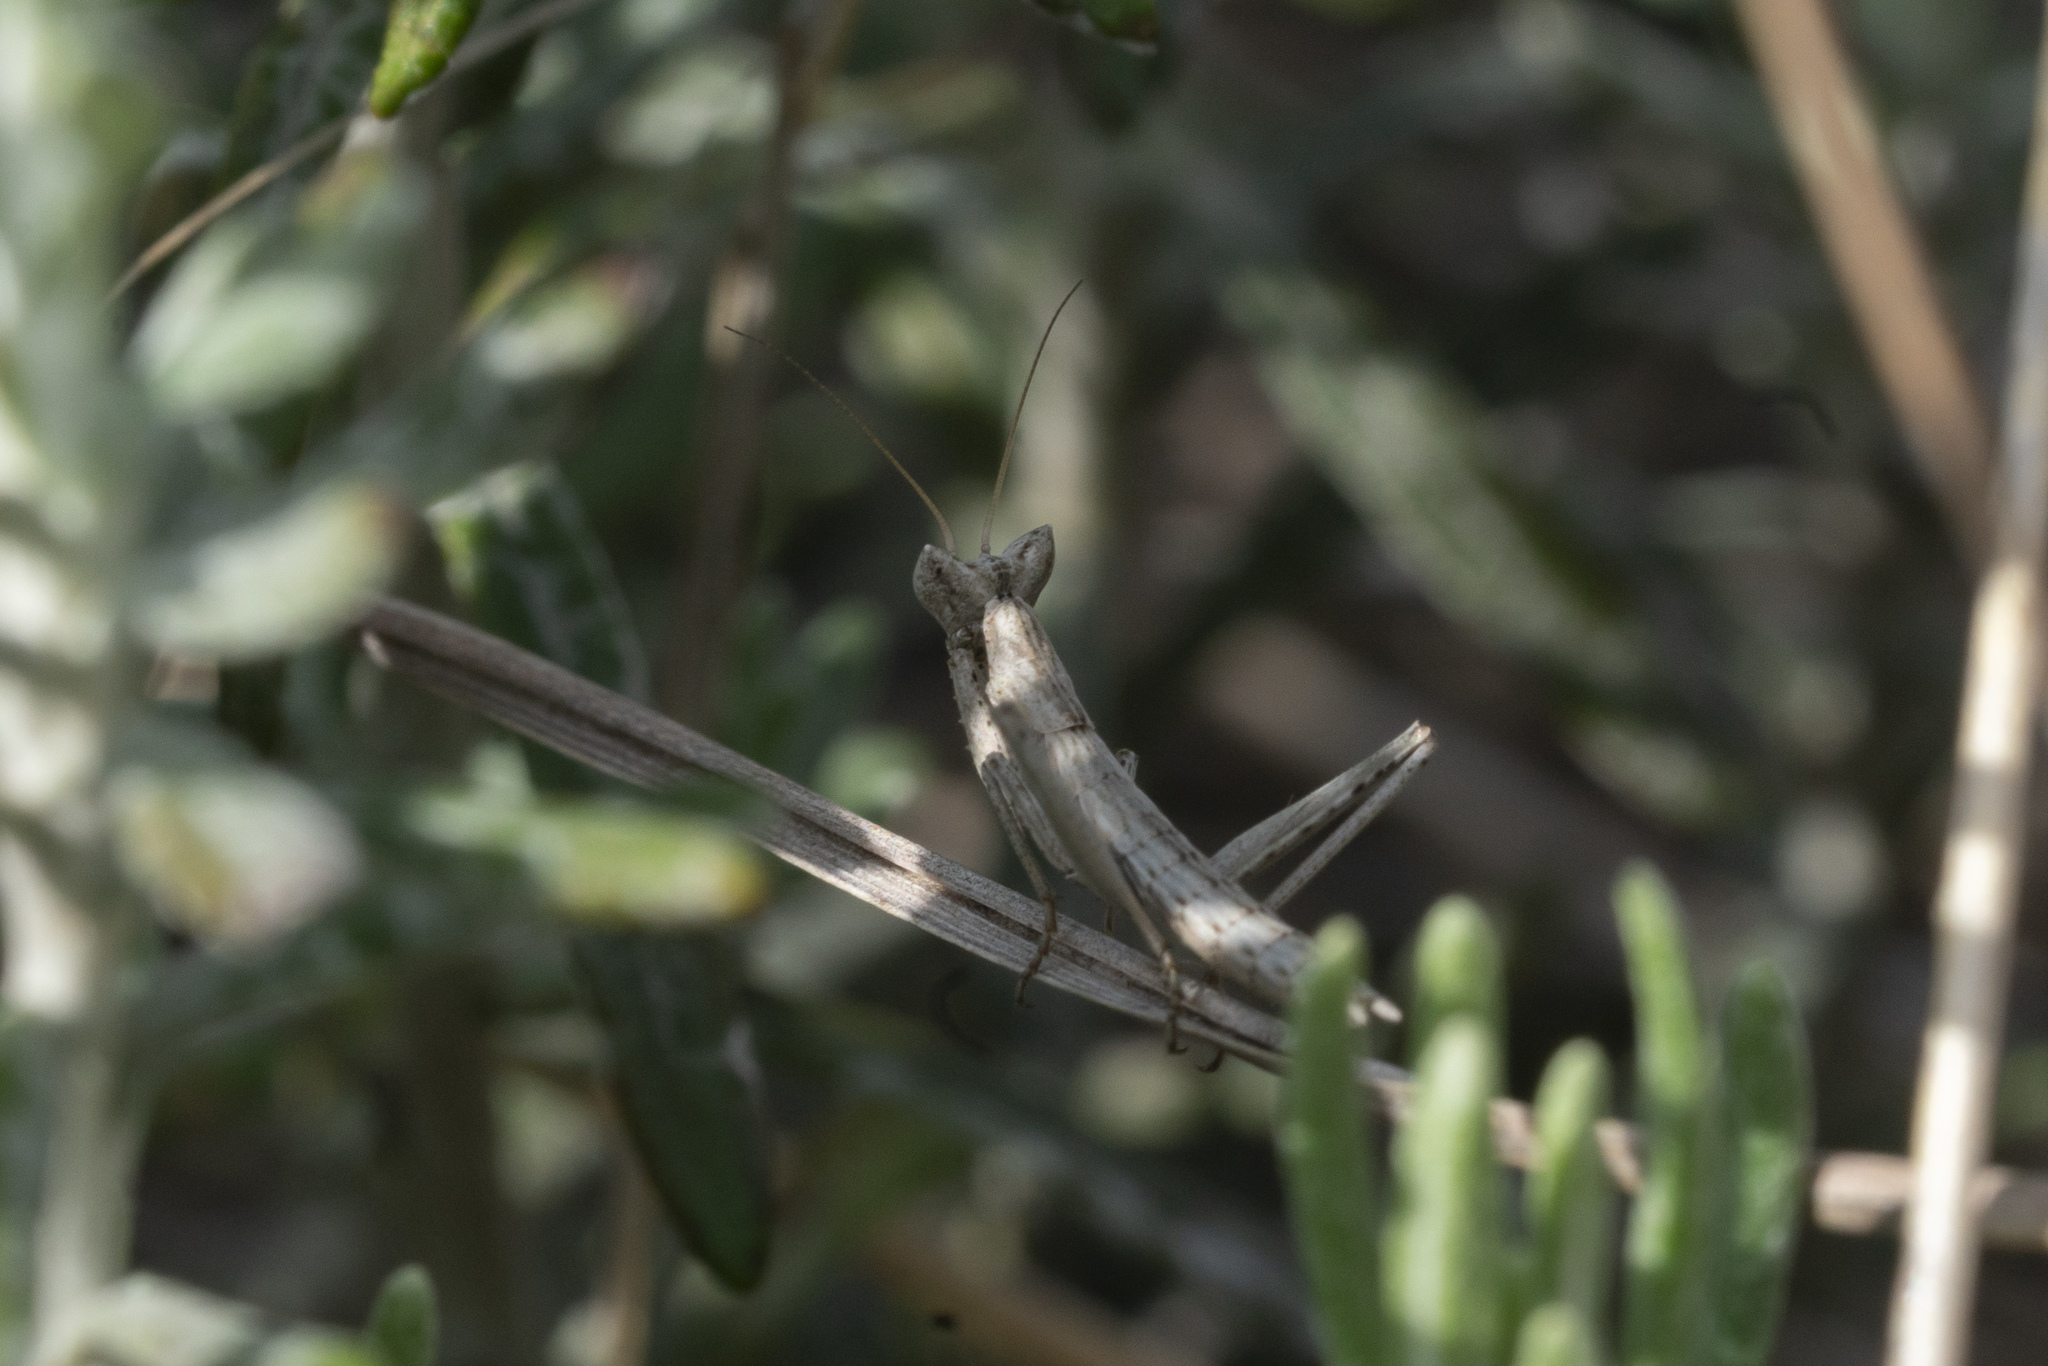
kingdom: Animalia
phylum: Arthropoda
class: Insecta
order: Mantodea
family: Amelidae
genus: Ameles
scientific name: Ameles heldreichi
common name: Heldreich's dwarf mantis
